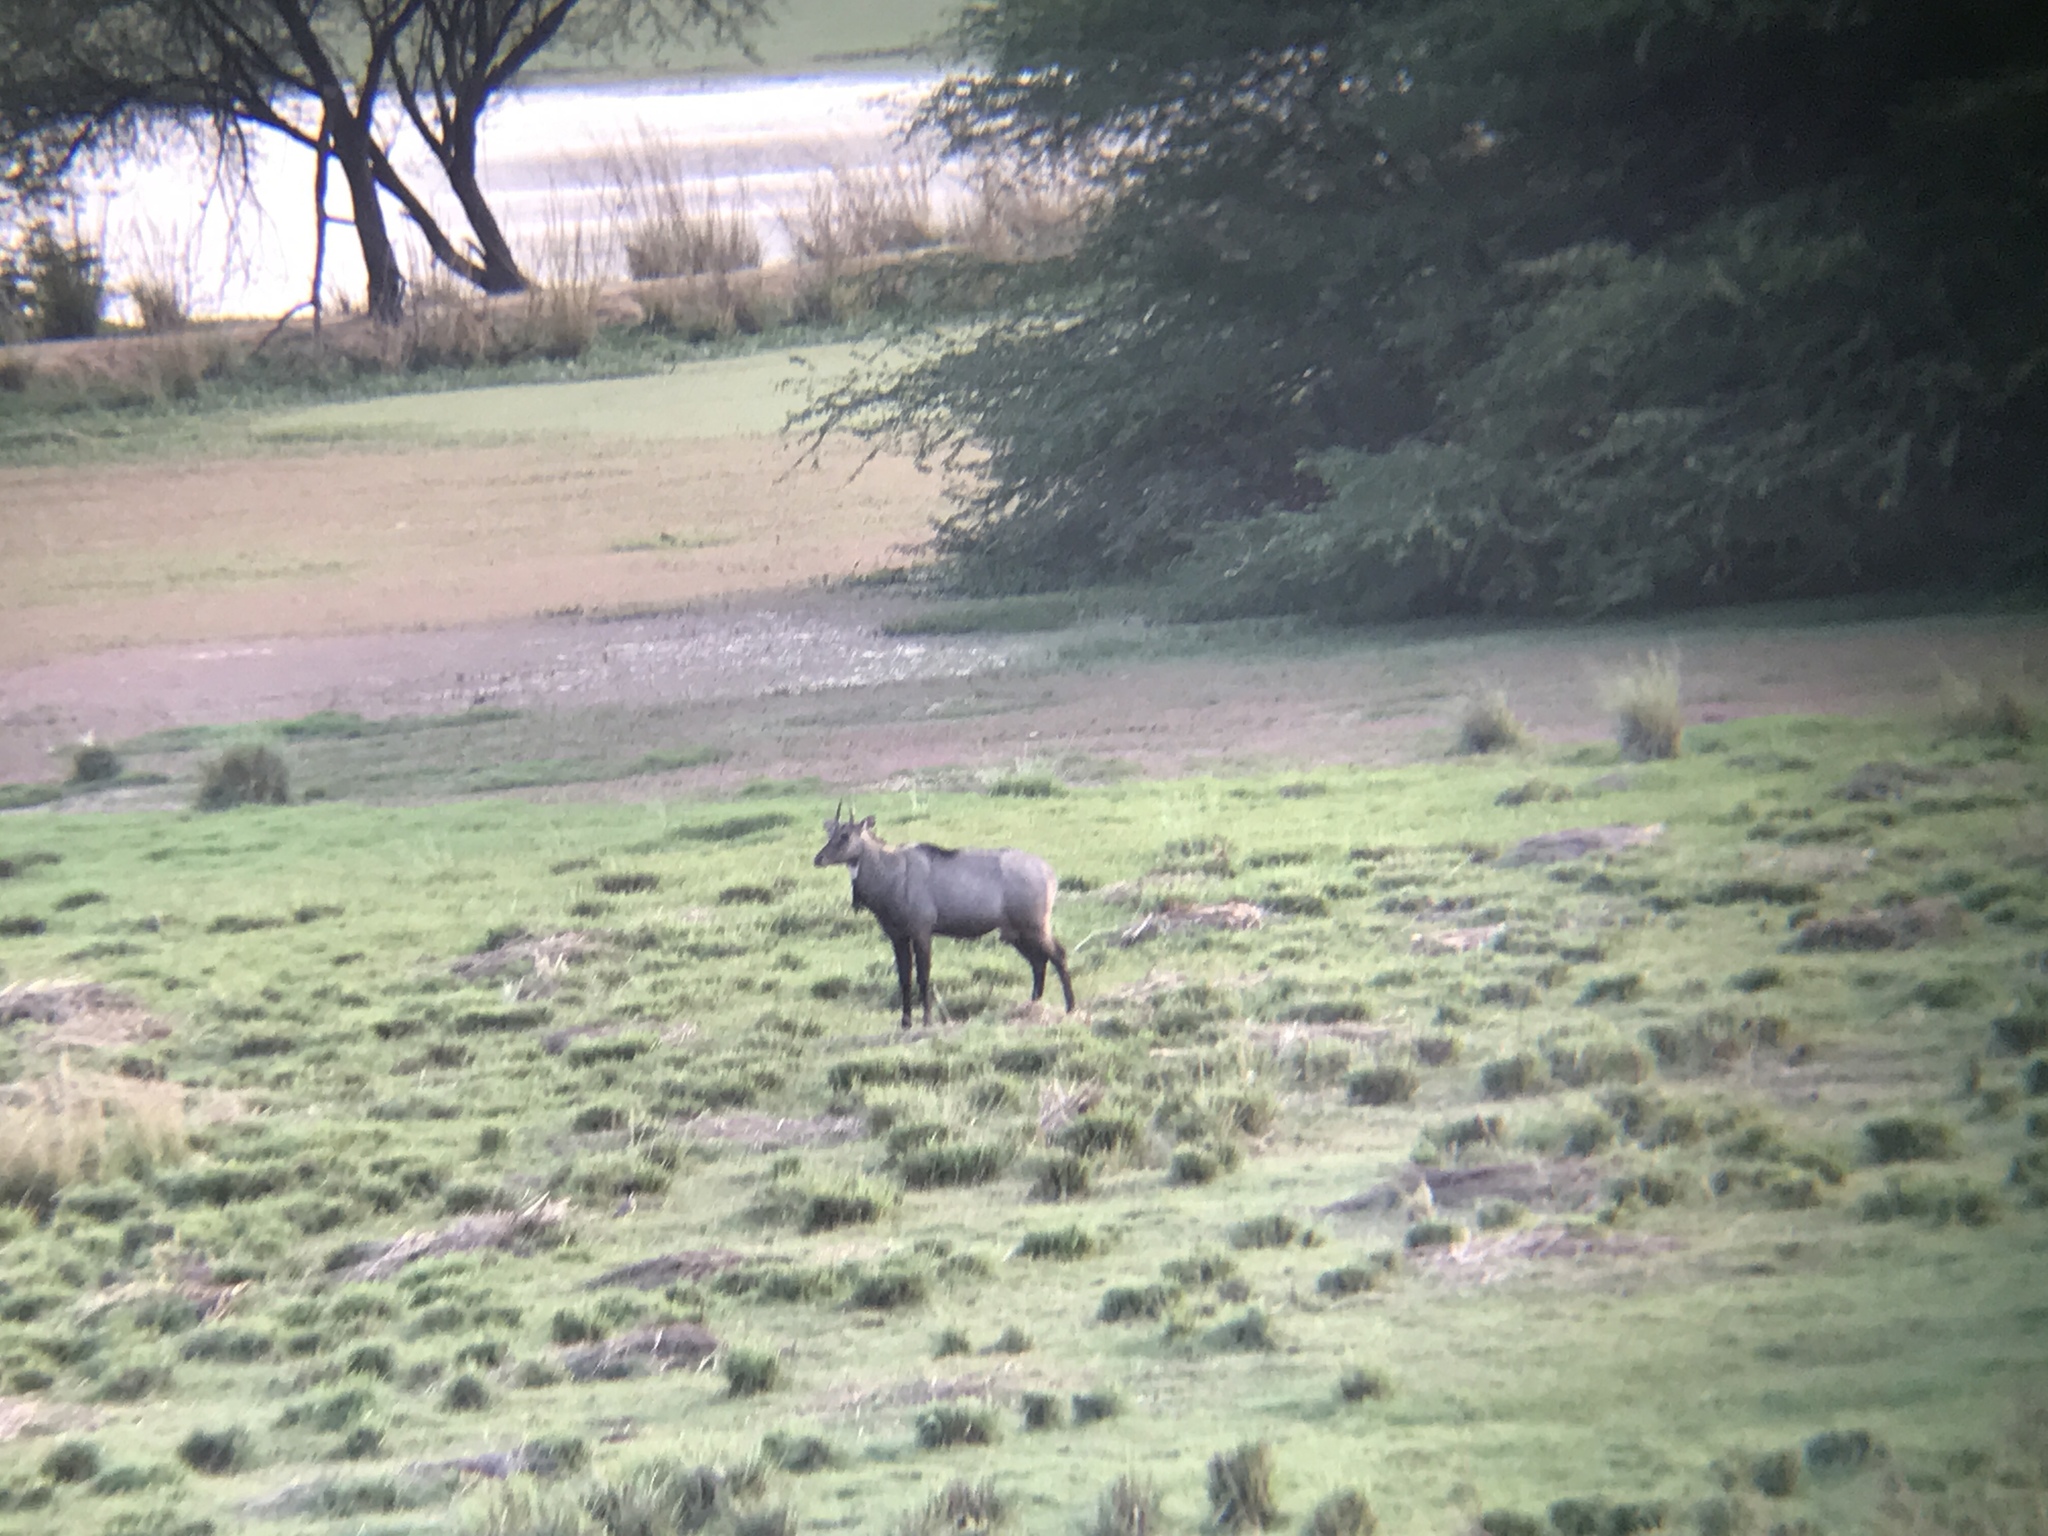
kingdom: Animalia
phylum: Chordata
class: Mammalia
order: Artiodactyla
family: Bovidae
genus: Boselaphus
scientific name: Boselaphus tragocamelus
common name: Nilgai
